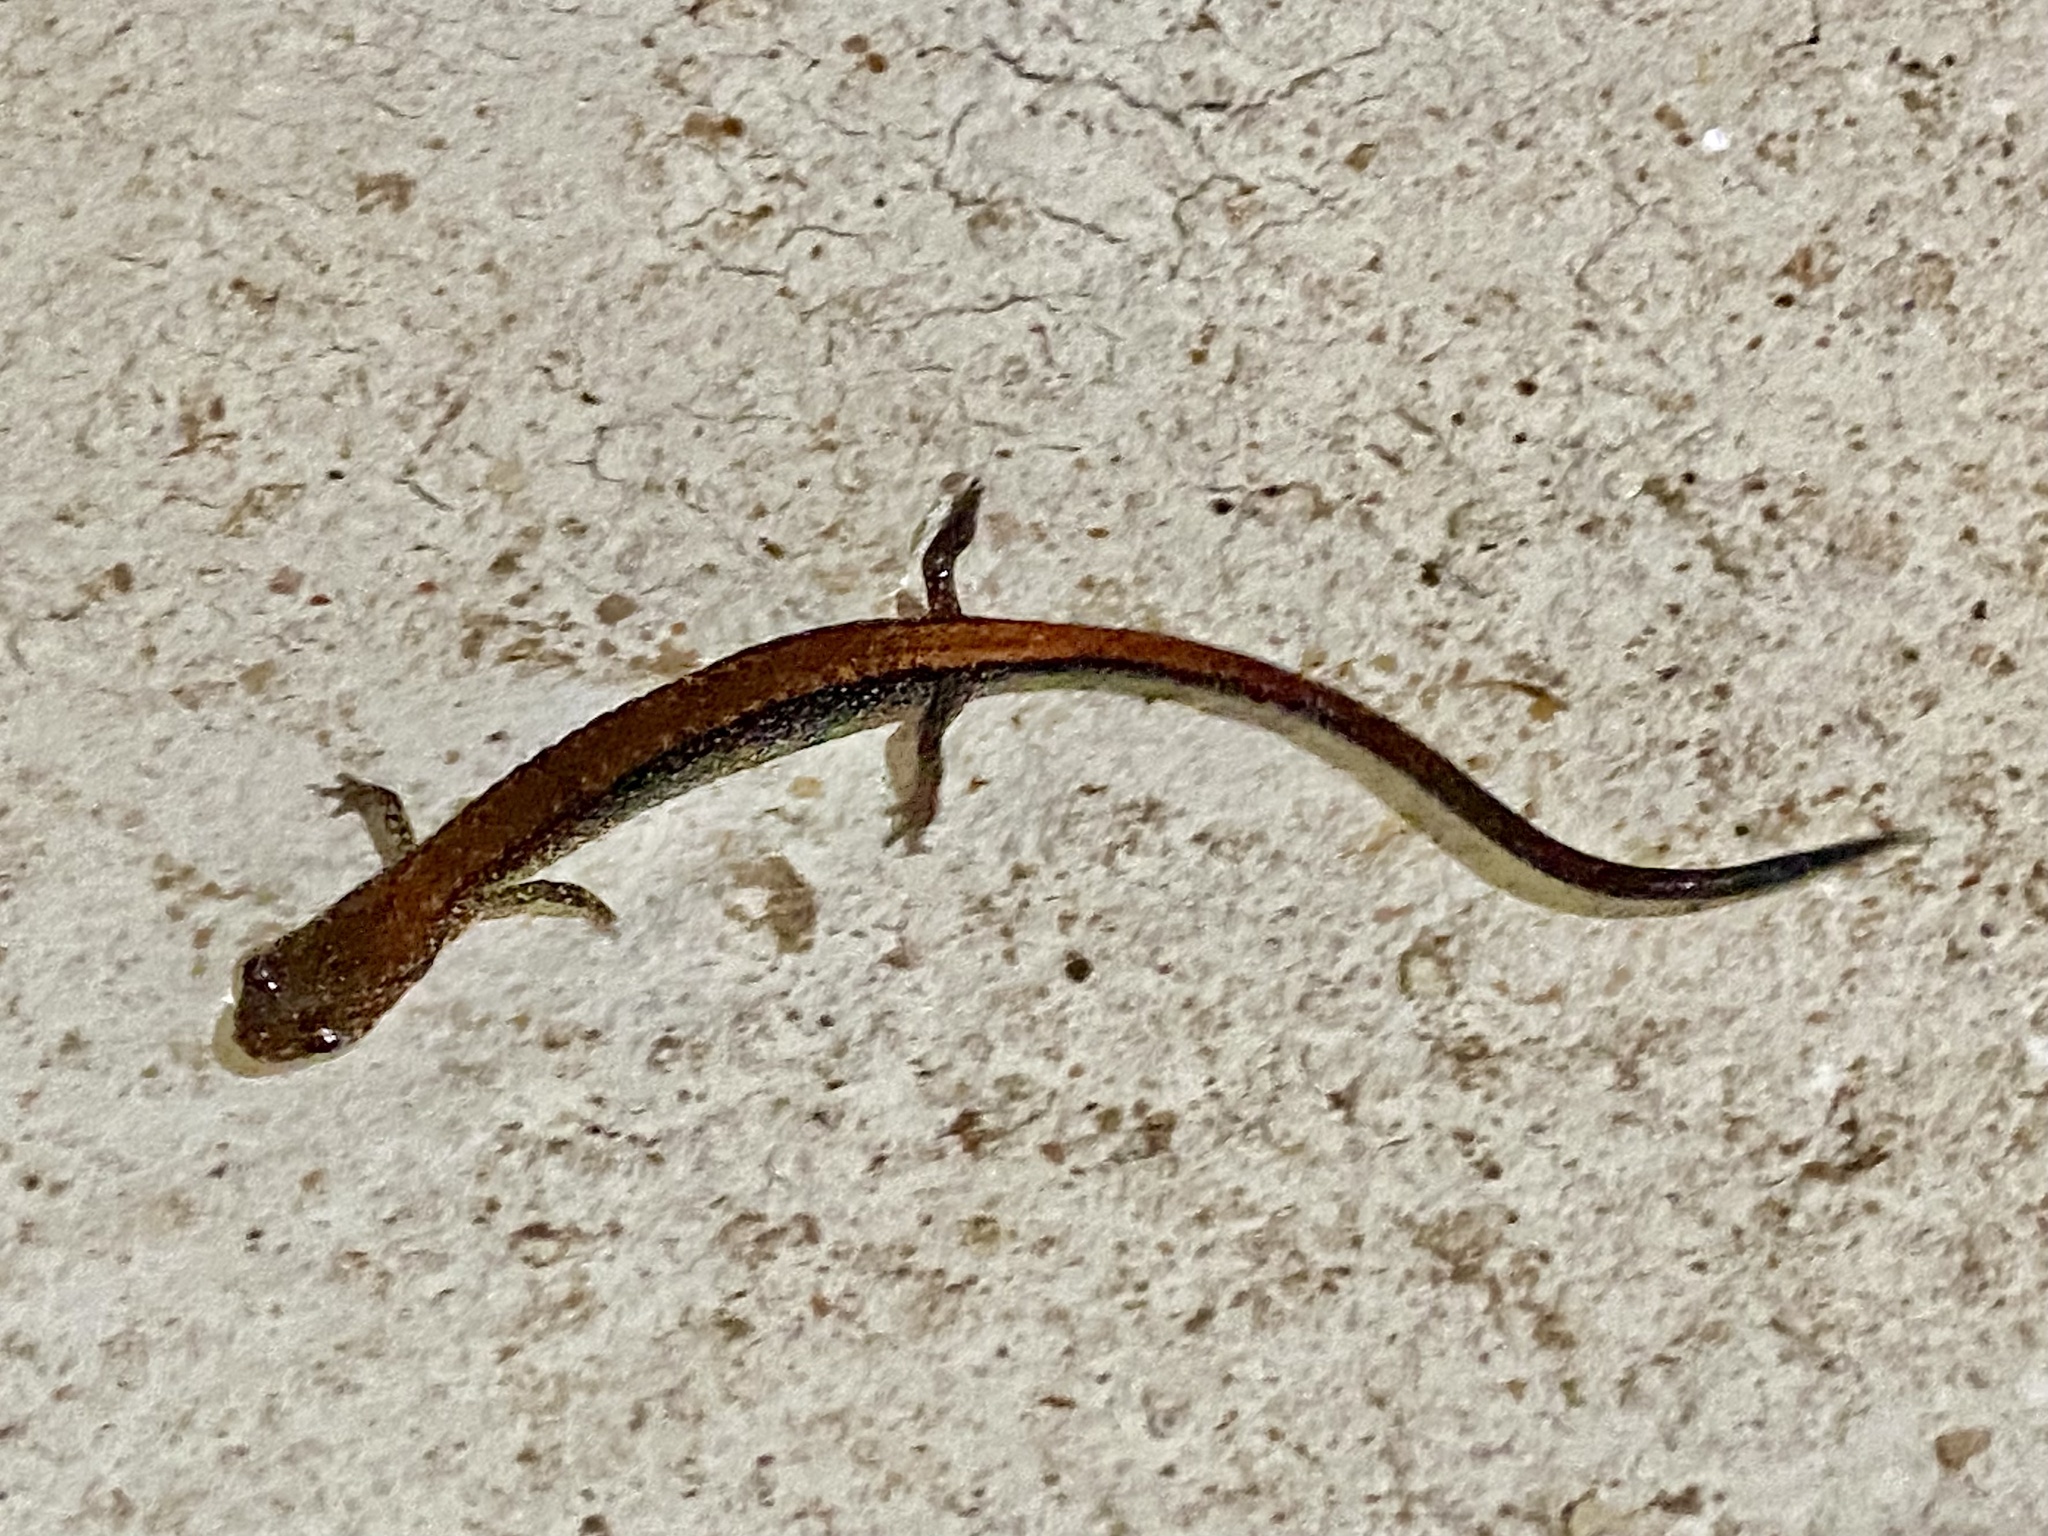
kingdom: Animalia
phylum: Chordata
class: Amphibia
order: Caudata
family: Plethodontidae
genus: Plethodon
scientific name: Plethodon cinereus
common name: Redback salamander
